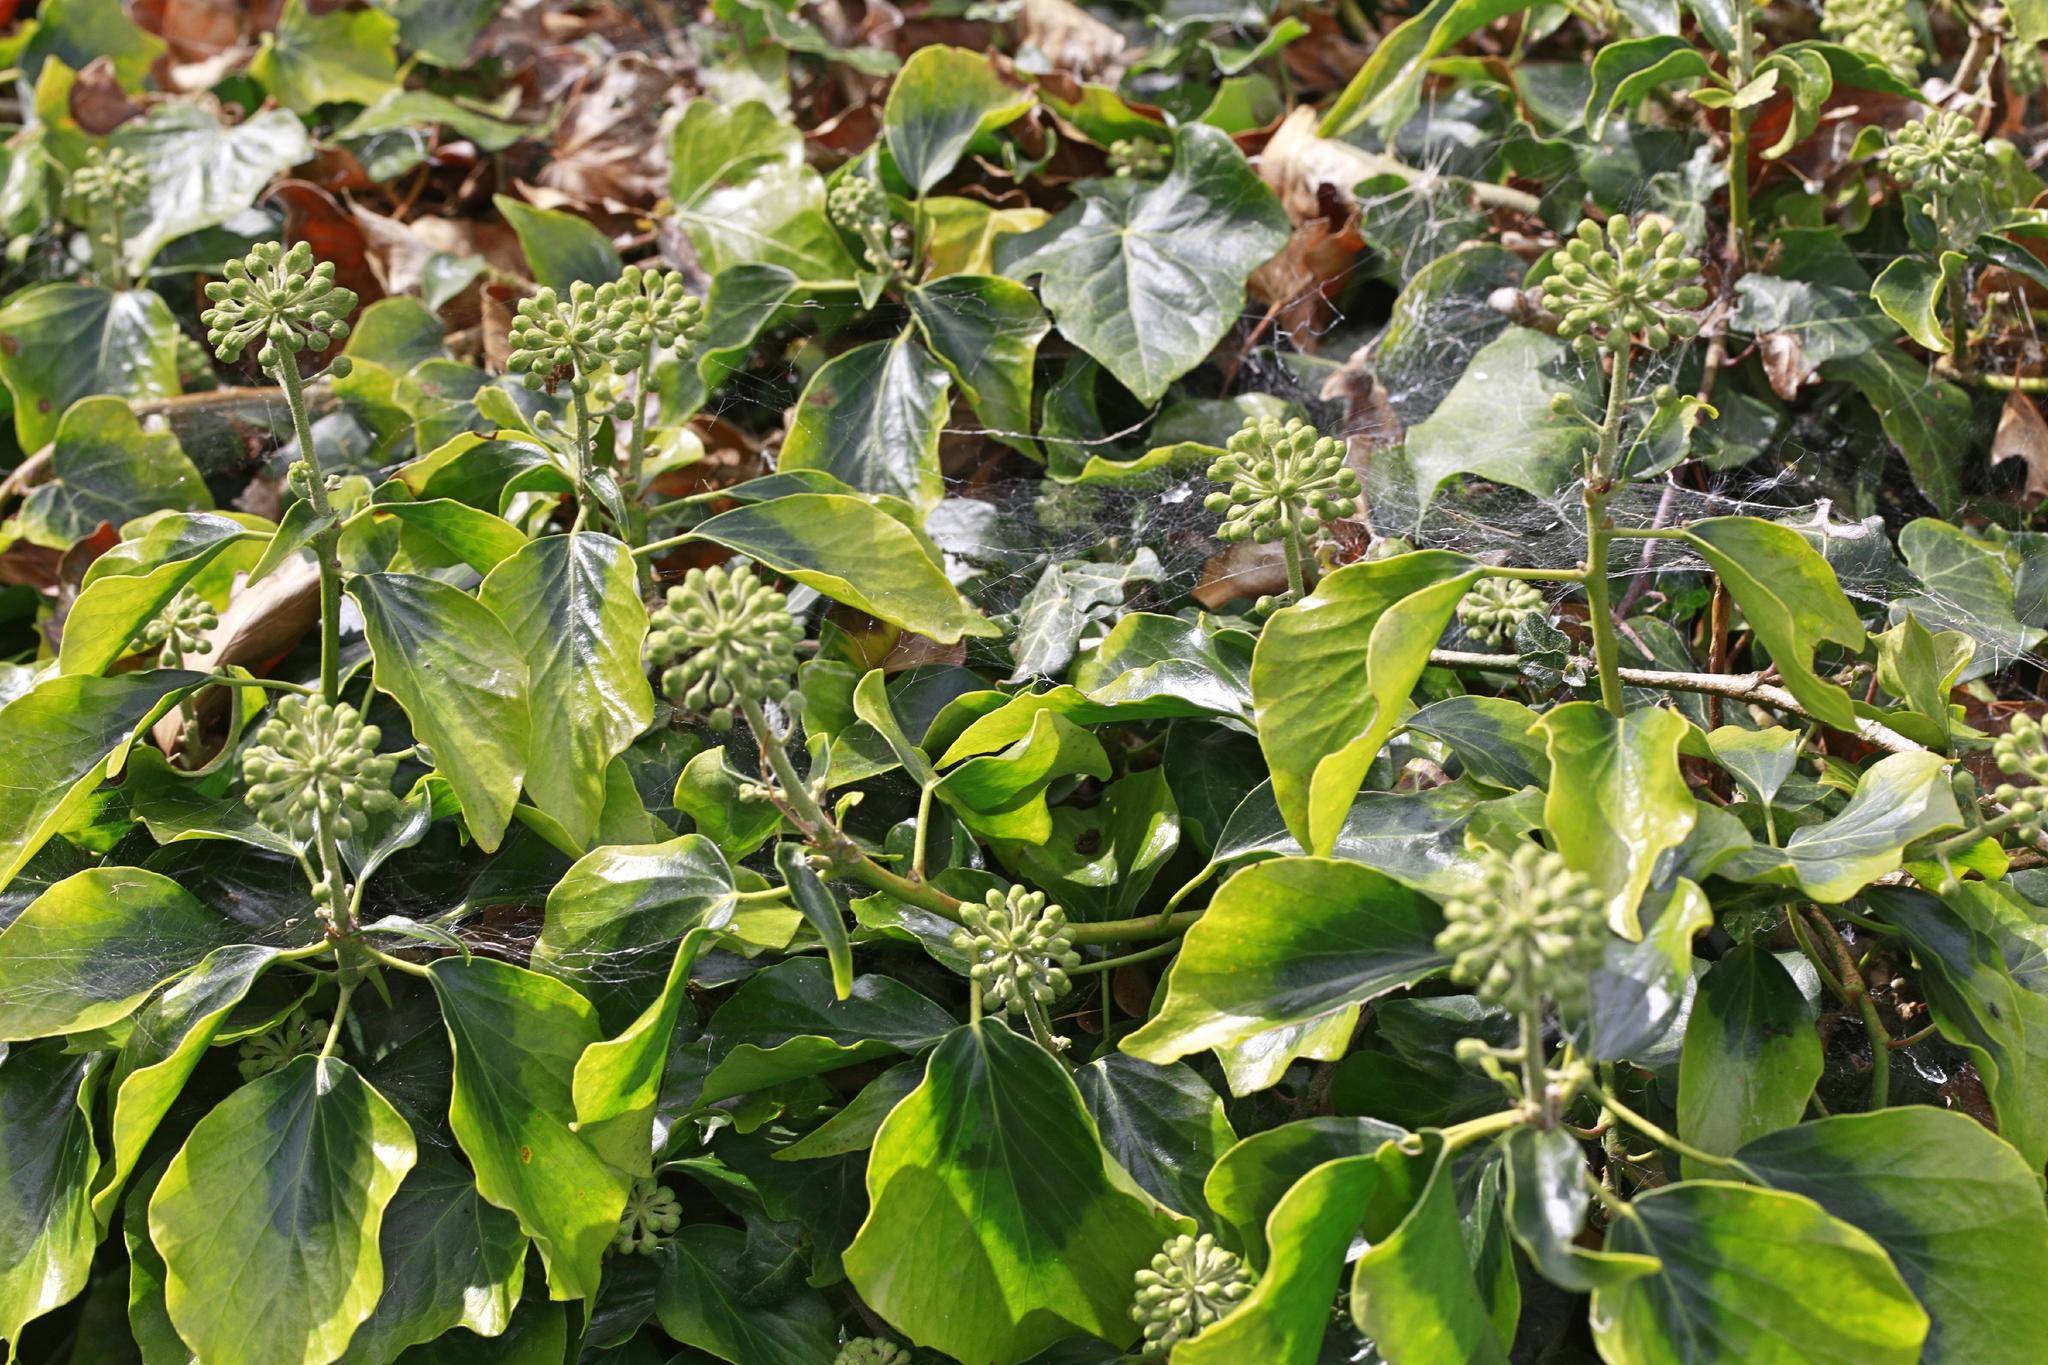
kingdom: Plantae
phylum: Tracheophyta
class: Magnoliopsida
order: Apiales
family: Araliaceae
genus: Hedera
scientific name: Hedera helix
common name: Ivy
